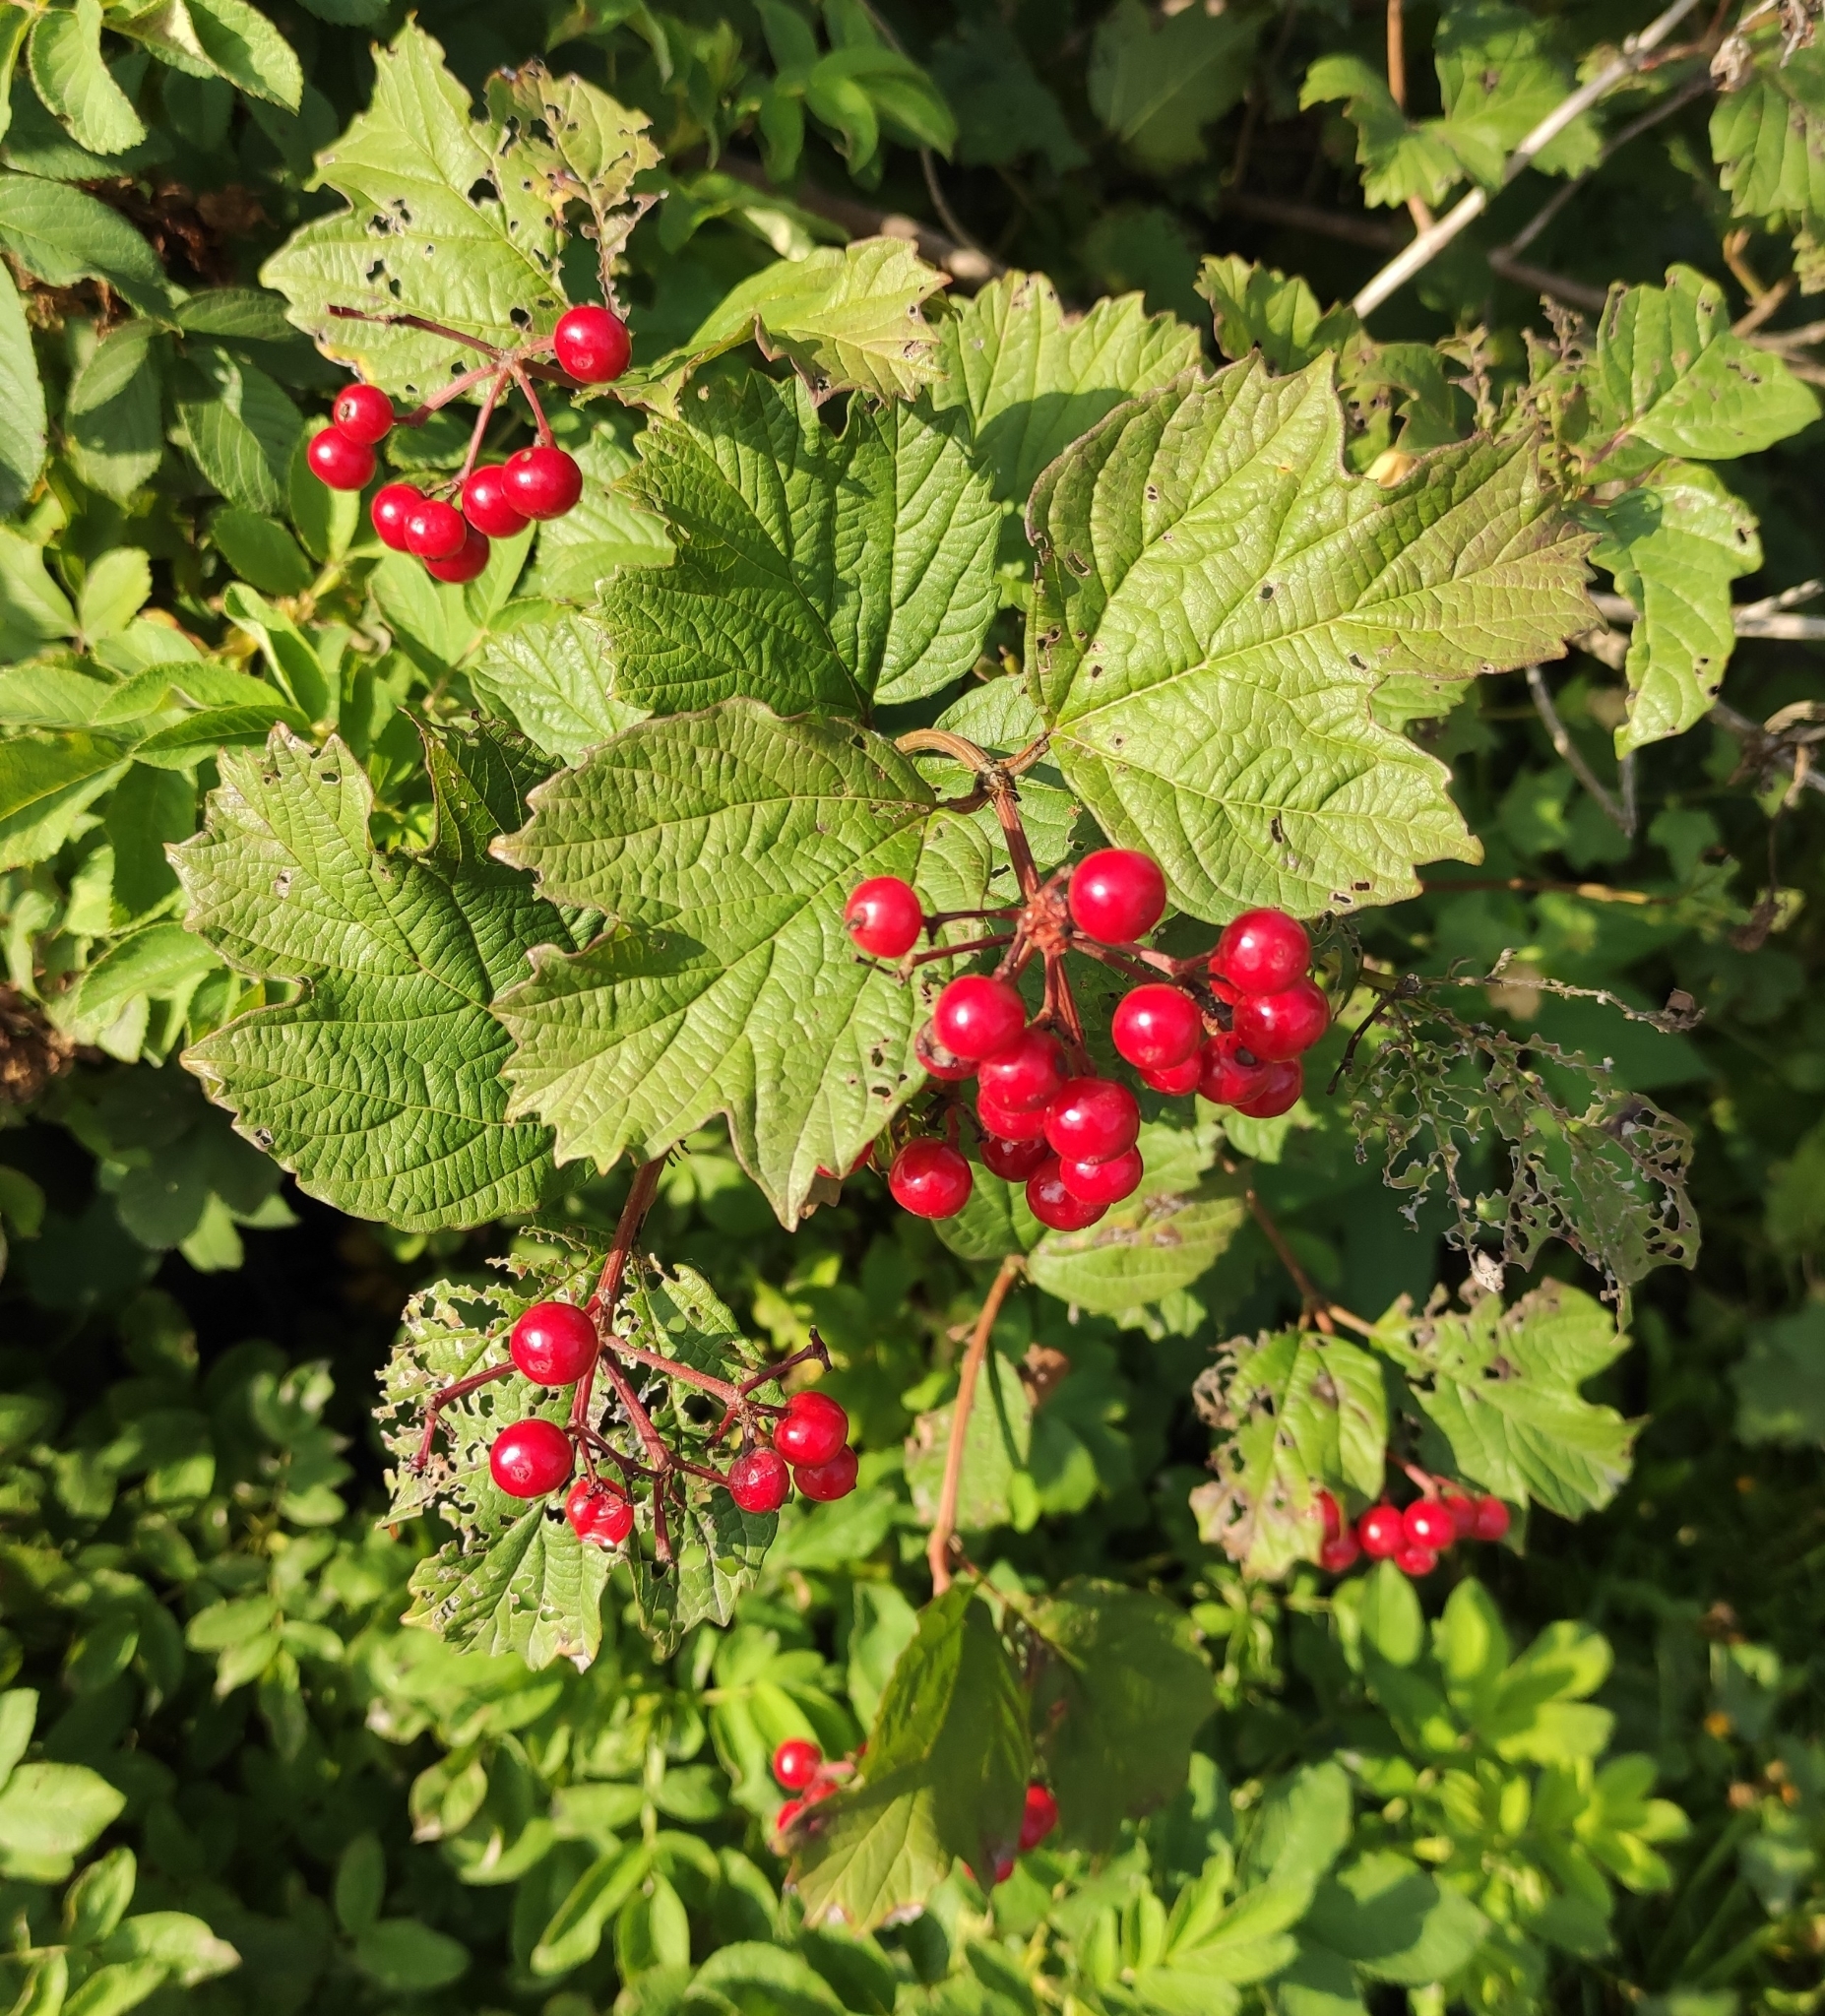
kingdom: Plantae
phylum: Tracheophyta
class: Magnoliopsida
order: Dipsacales
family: Viburnaceae
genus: Viburnum
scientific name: Viburnum opulus
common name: Guelder-rose
